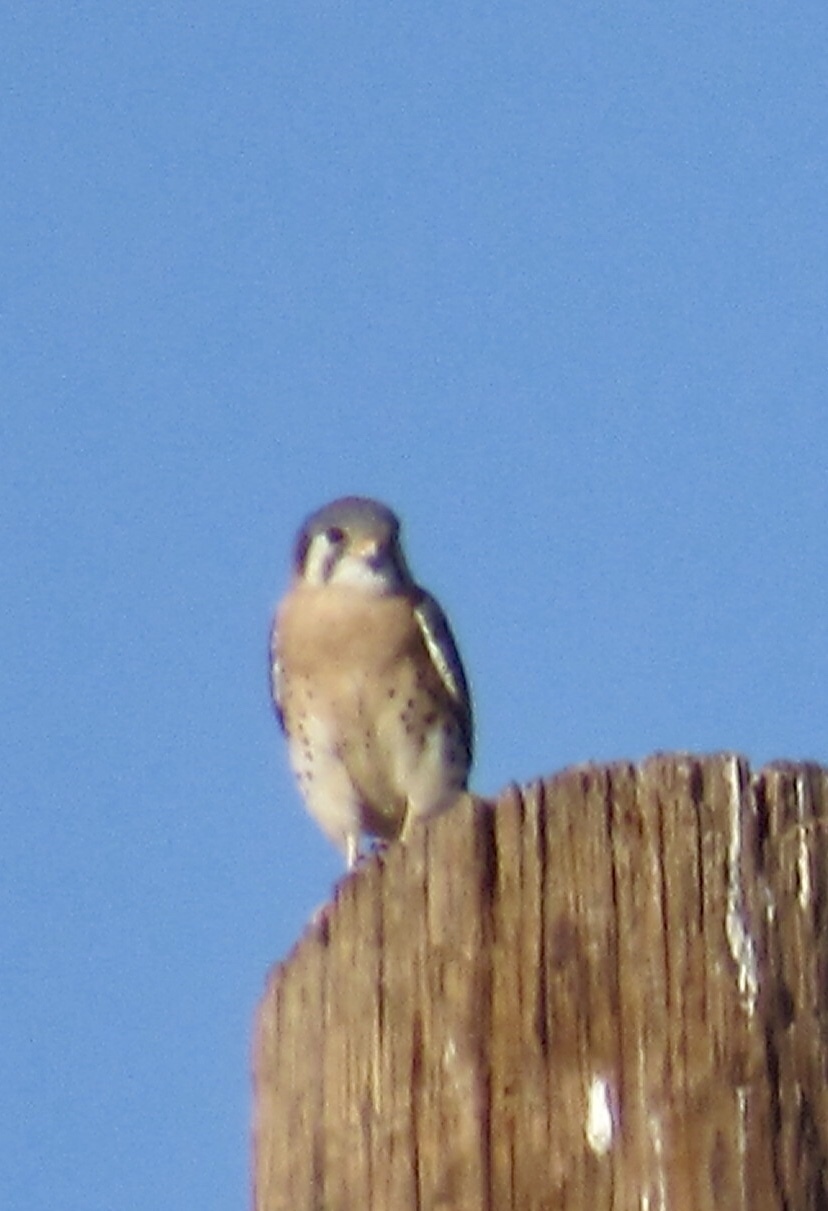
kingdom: Animalia
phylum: Chordata
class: Aves
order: Falconiformes
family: Falconidae
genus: Falco
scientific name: Falco sparverius
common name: American kestrel
